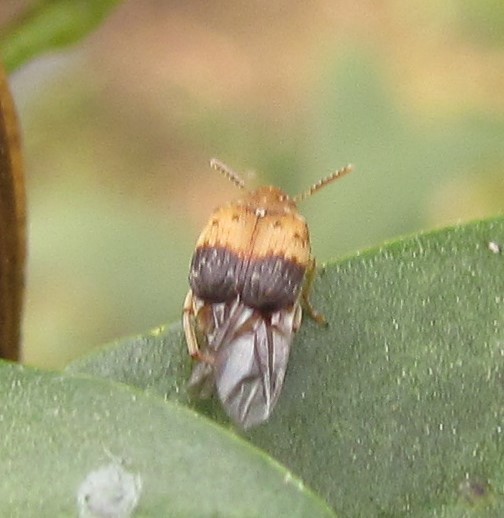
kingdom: Animalia
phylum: Arthropoda
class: Insecta
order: Coleoptera
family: Chrysomelidae
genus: Sennius
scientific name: Sennius
